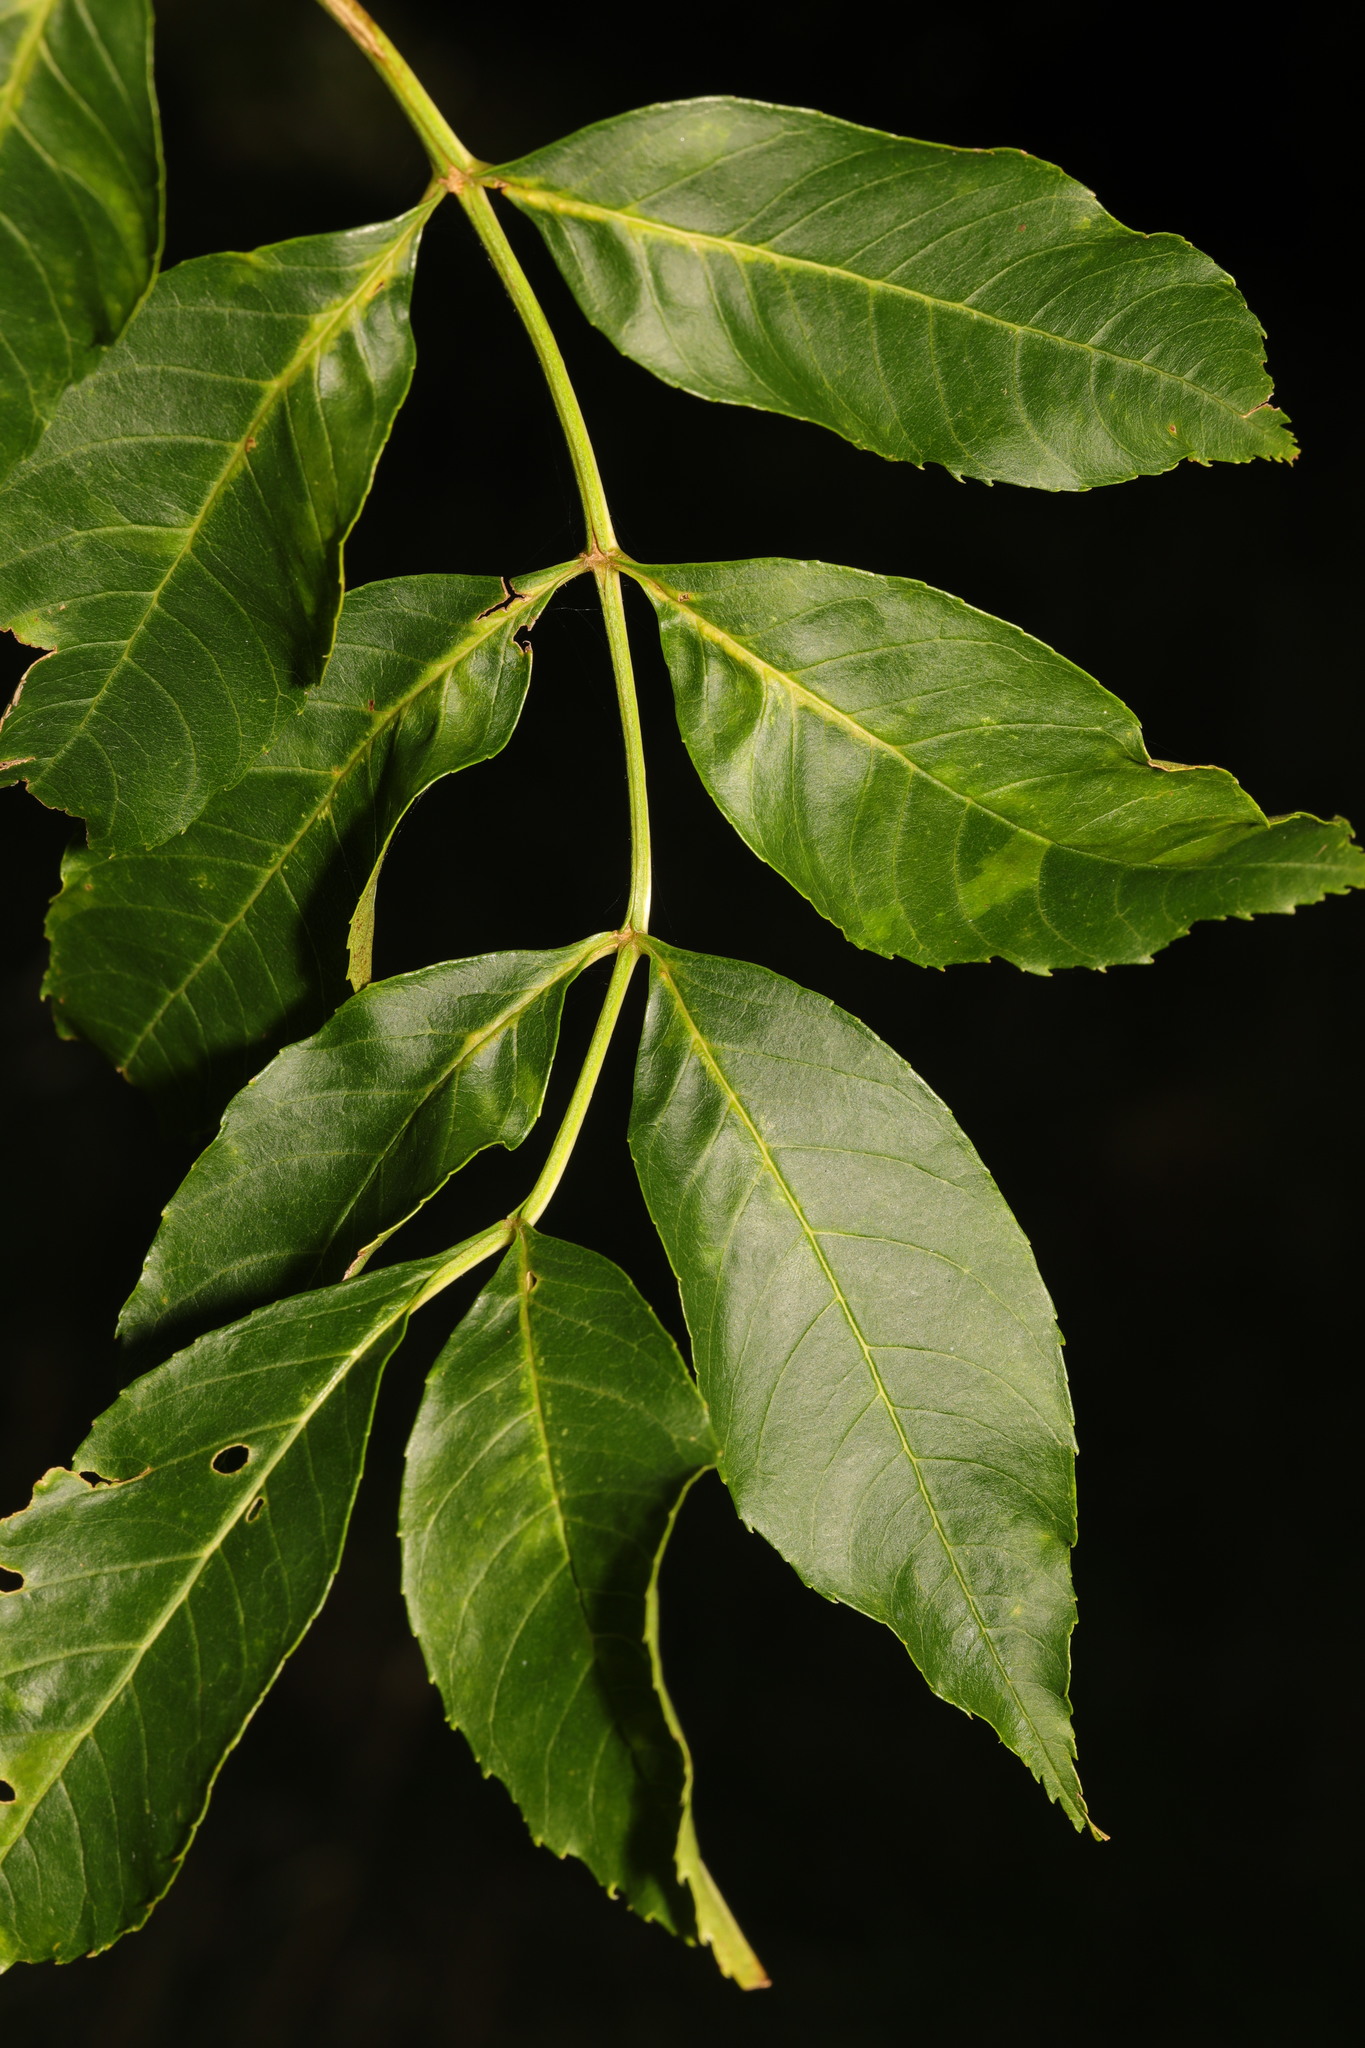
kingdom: Plantae
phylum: Tracheophyta
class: Magnoliopsida
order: Lamiales
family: Oleaceae
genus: Fraxinus
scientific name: Fraxinus excelsior
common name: European ash
